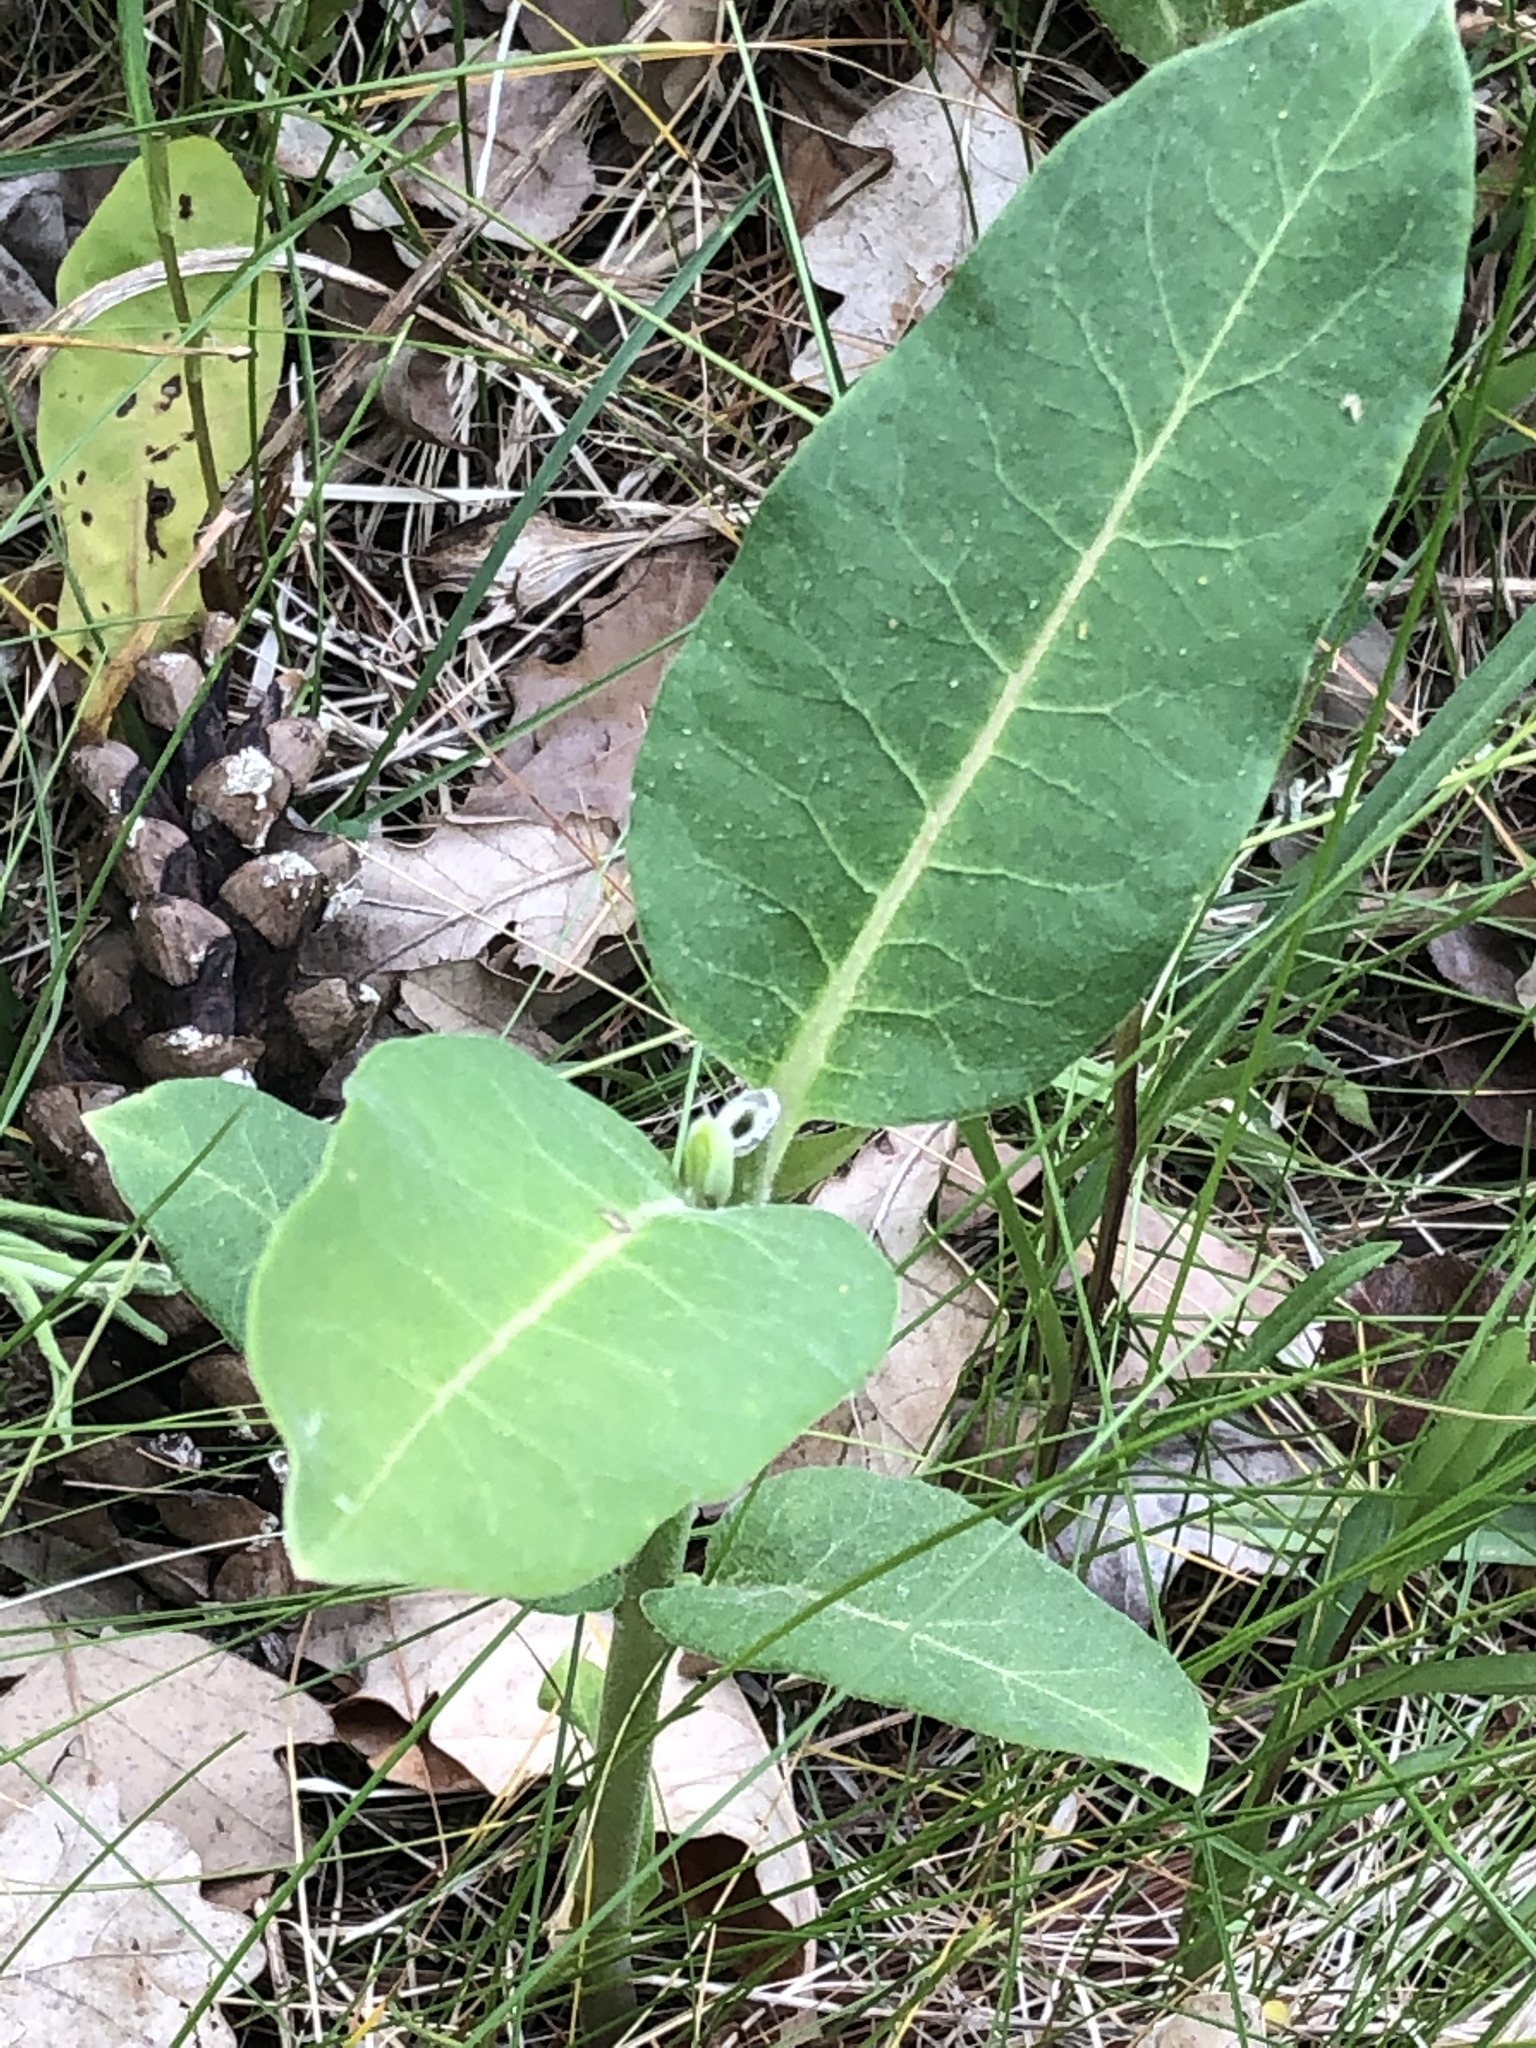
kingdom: Plantae
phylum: Tracheophyta
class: Magnoliopsida
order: Gentianales
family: Apocynaceae
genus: Asclepias
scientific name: Asclepias syriaca
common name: Common milkweed
